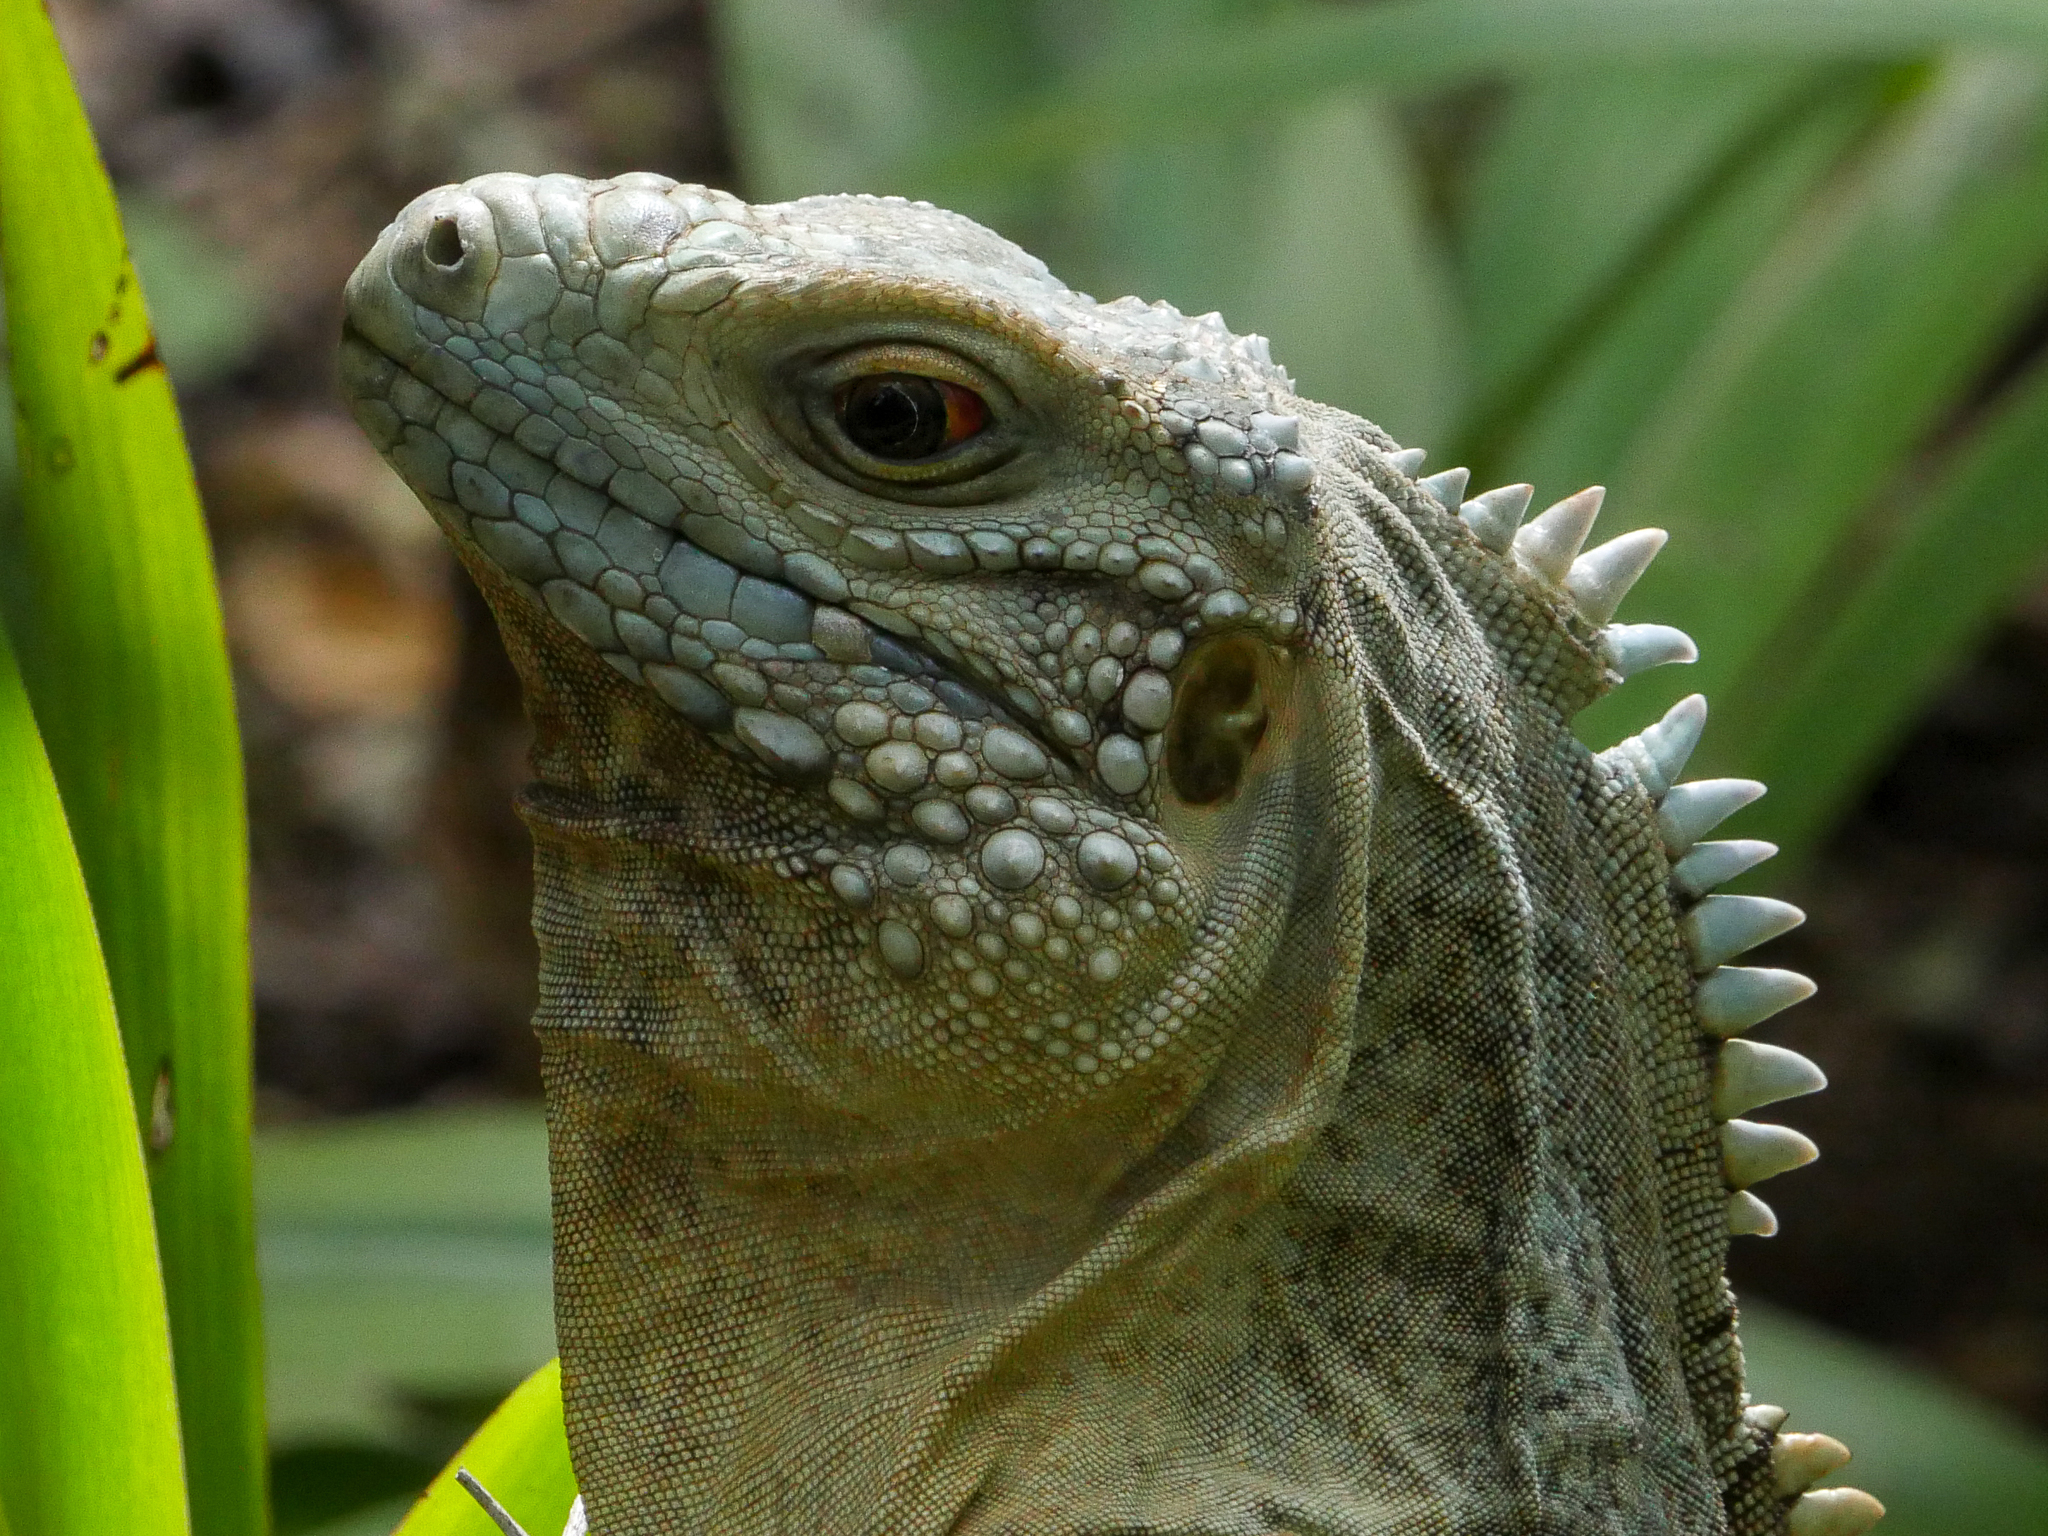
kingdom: Animalia
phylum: Chordata
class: Squamata
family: Iguanidae
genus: Cyclura
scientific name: Cyclura lewisi
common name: Grand cayman blue iguana
